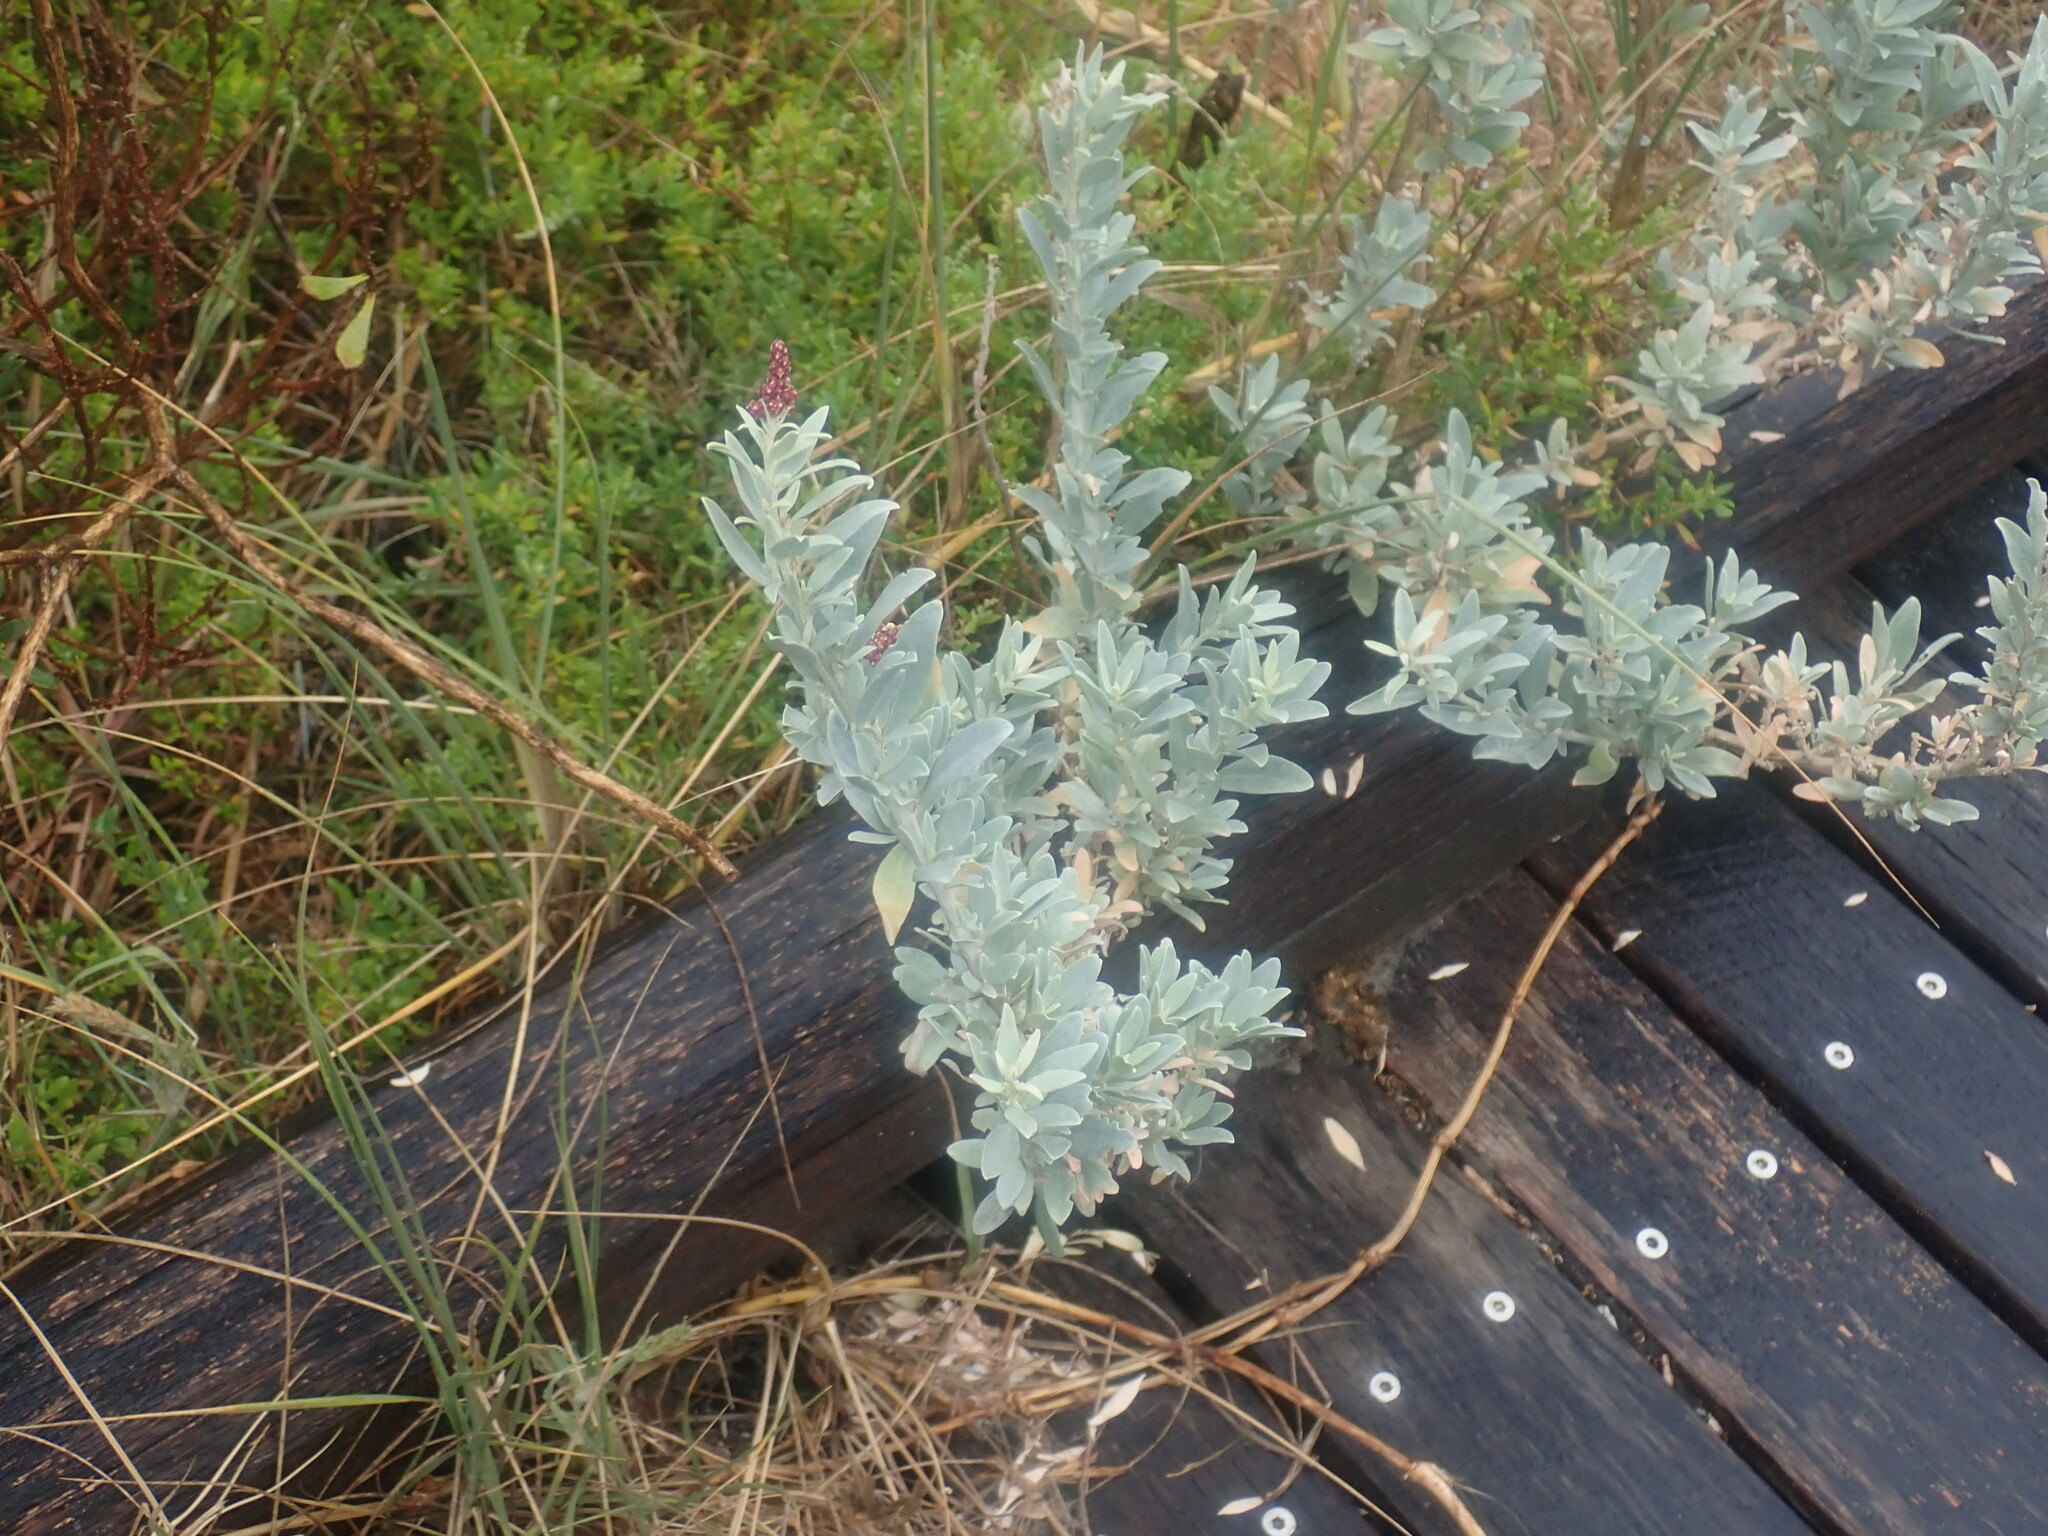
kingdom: Plantae
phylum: Tracheophyta
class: Magnoliopsida
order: Caryophyllales
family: Amaranthaceae
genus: Atriplex
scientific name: Atriplex cinerea
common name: Grey saltbush
